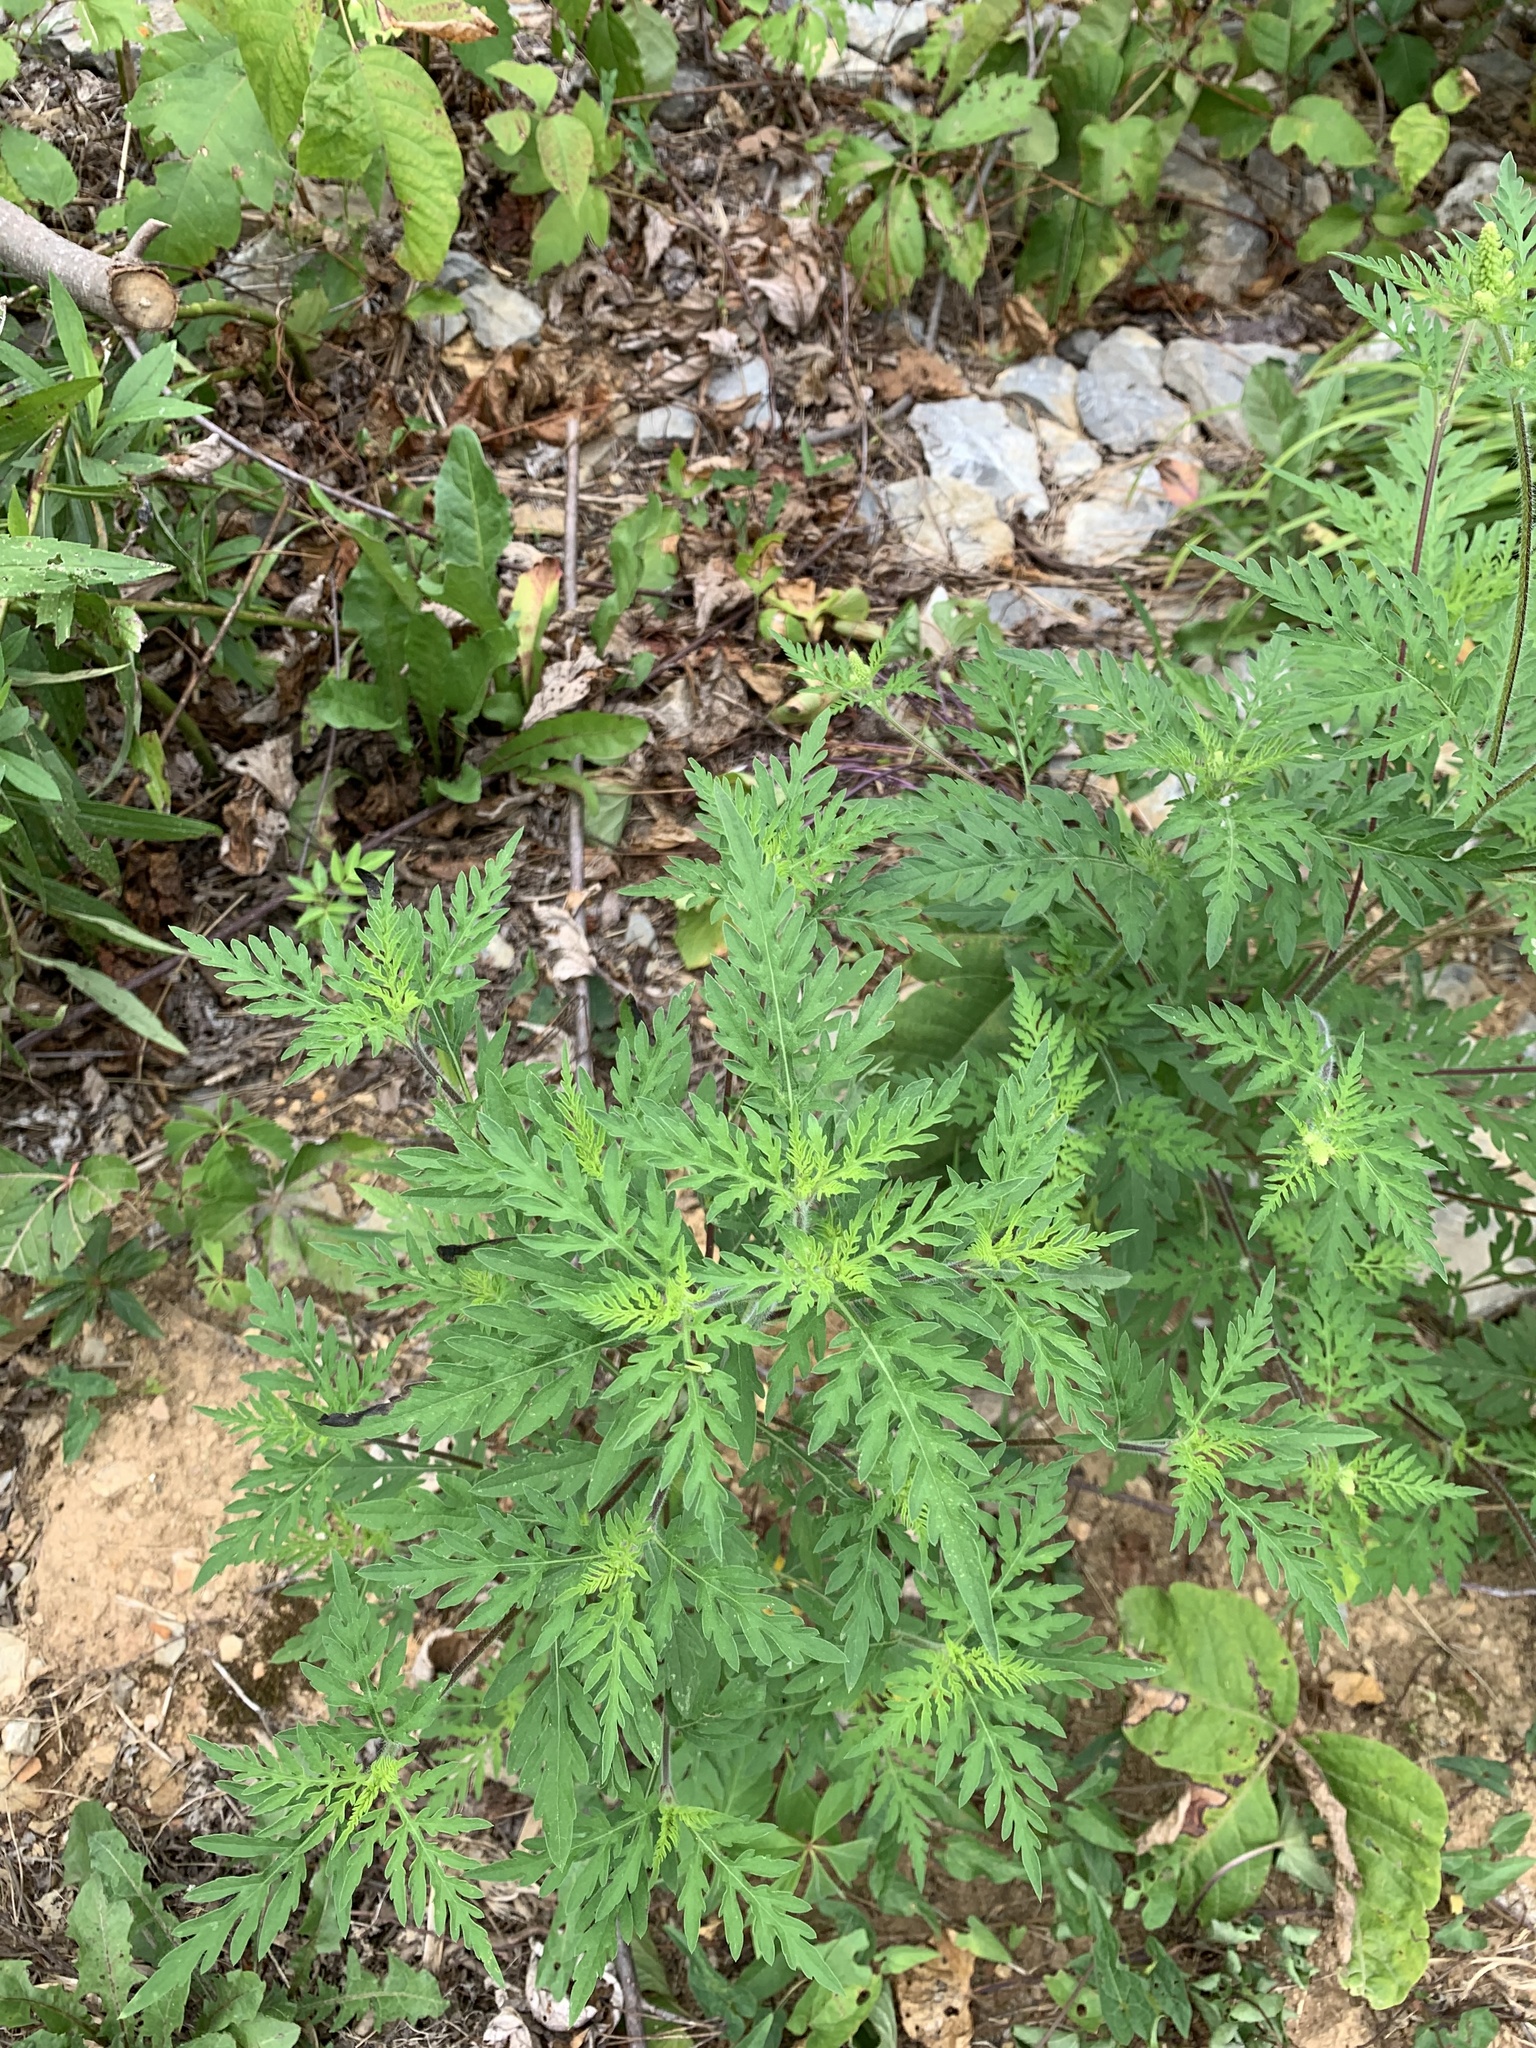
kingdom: Plantae
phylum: Tracheophyta
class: Magnoliopsida
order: Asterales
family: Asteraceae
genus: Ambrosia
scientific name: Ambrosia artemisiifolia
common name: Annual ragweed
